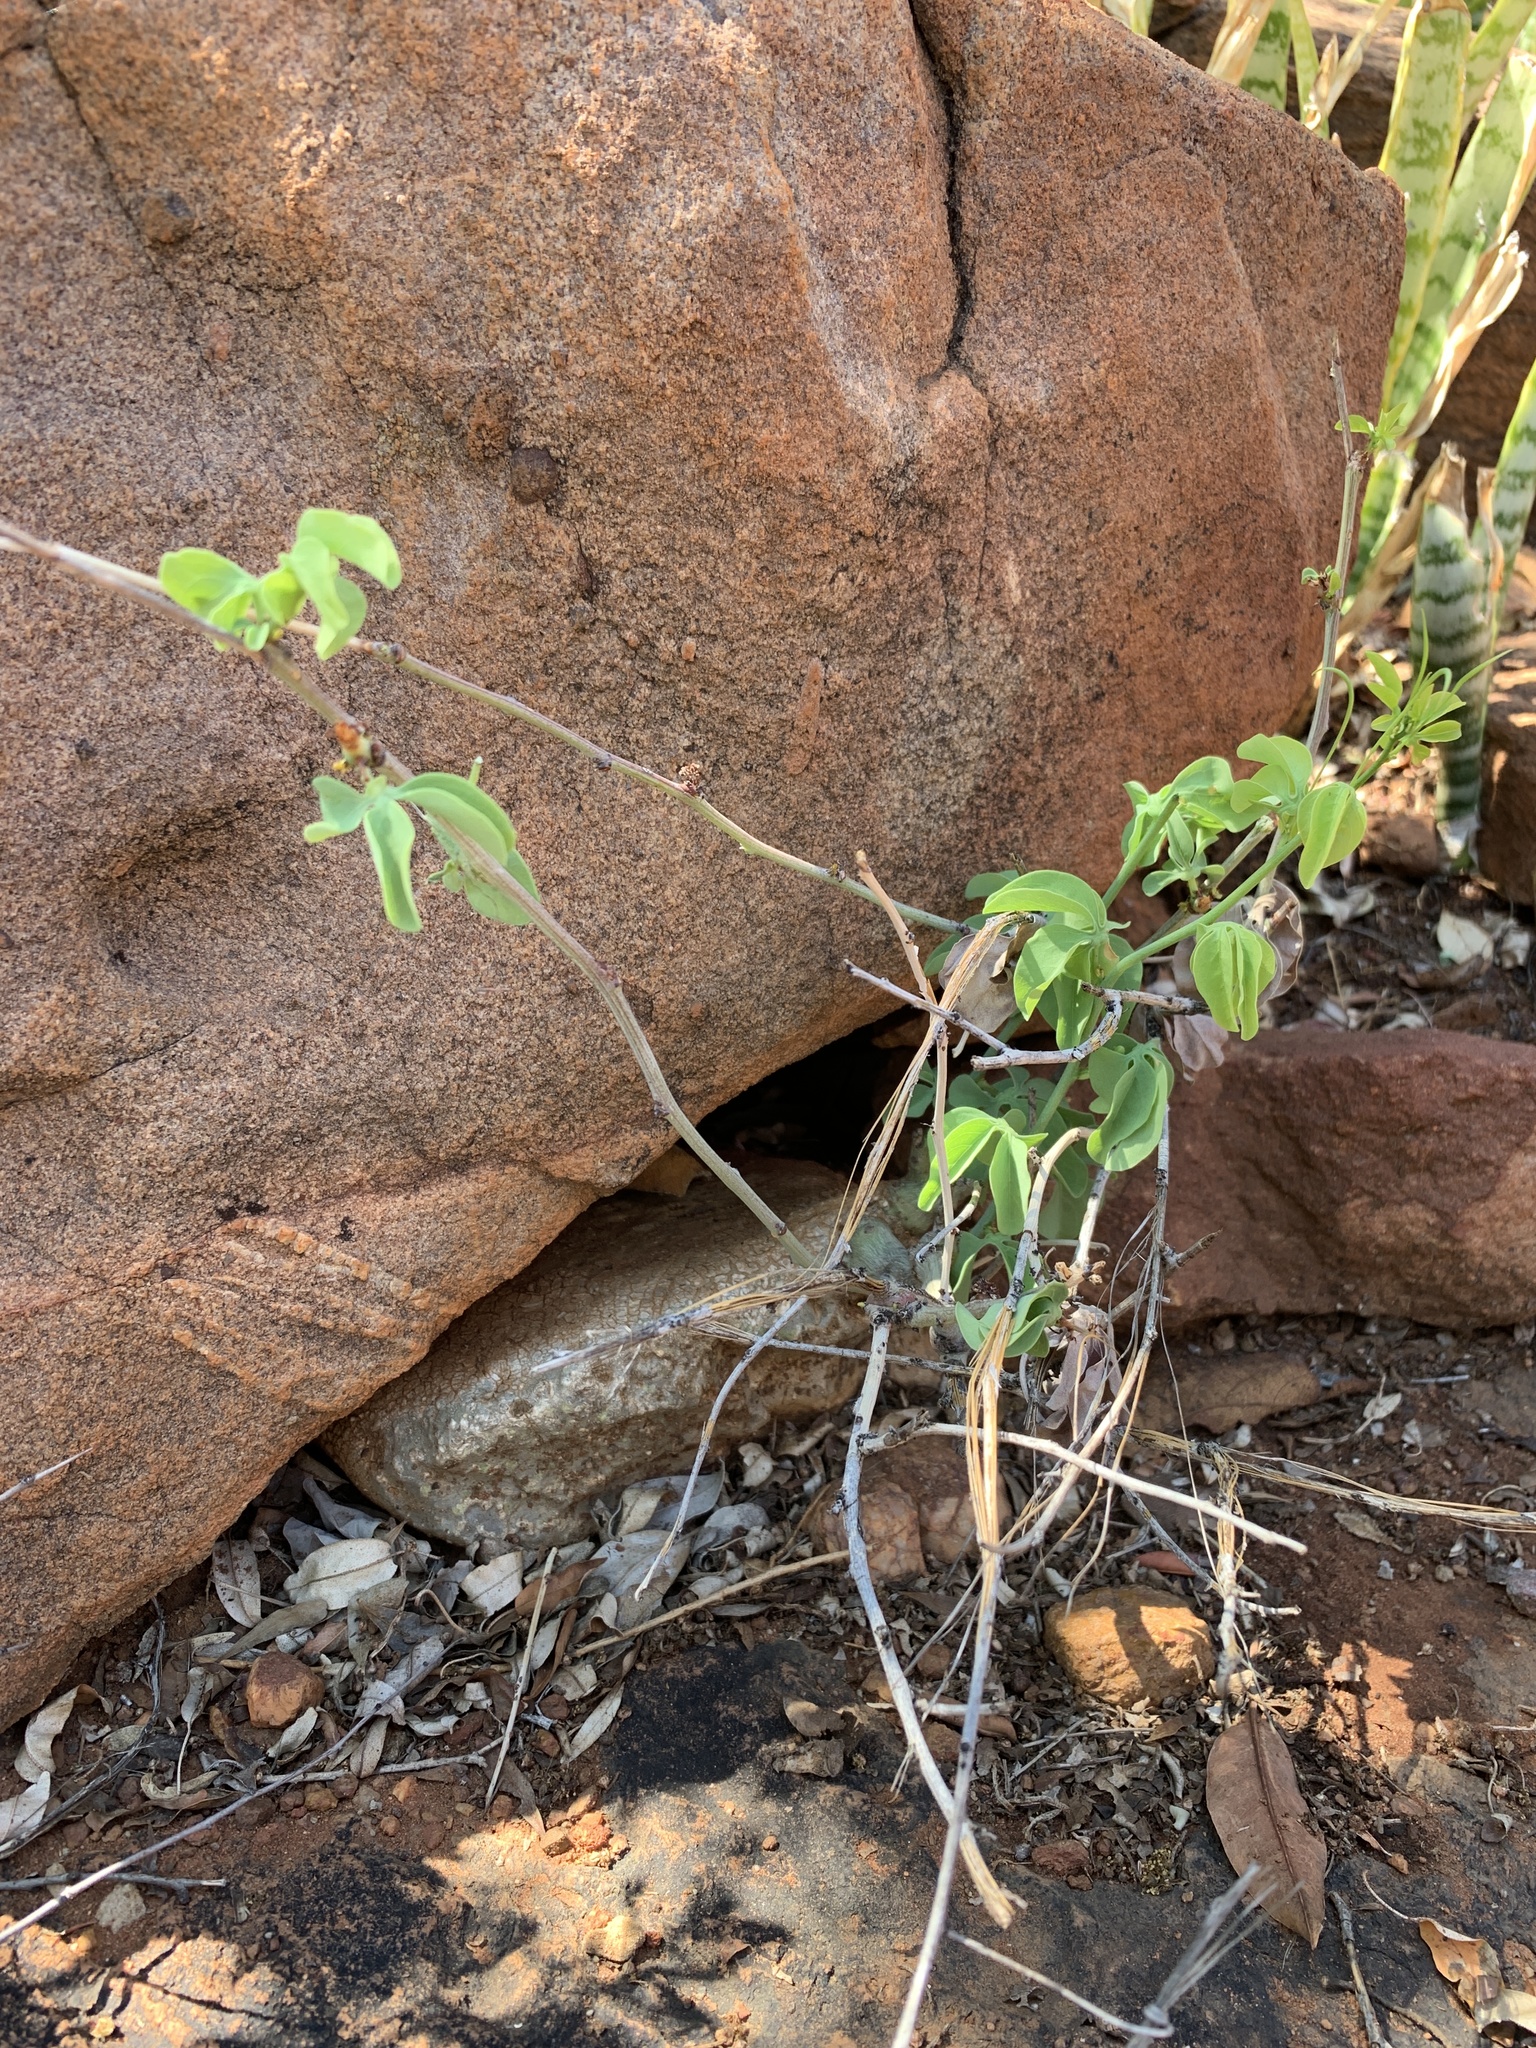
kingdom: Plantae
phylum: Tracheophyta
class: Magnoliopsida
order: Malpighiales
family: Passifloraceae
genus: Adenia
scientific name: Adenia glauca
